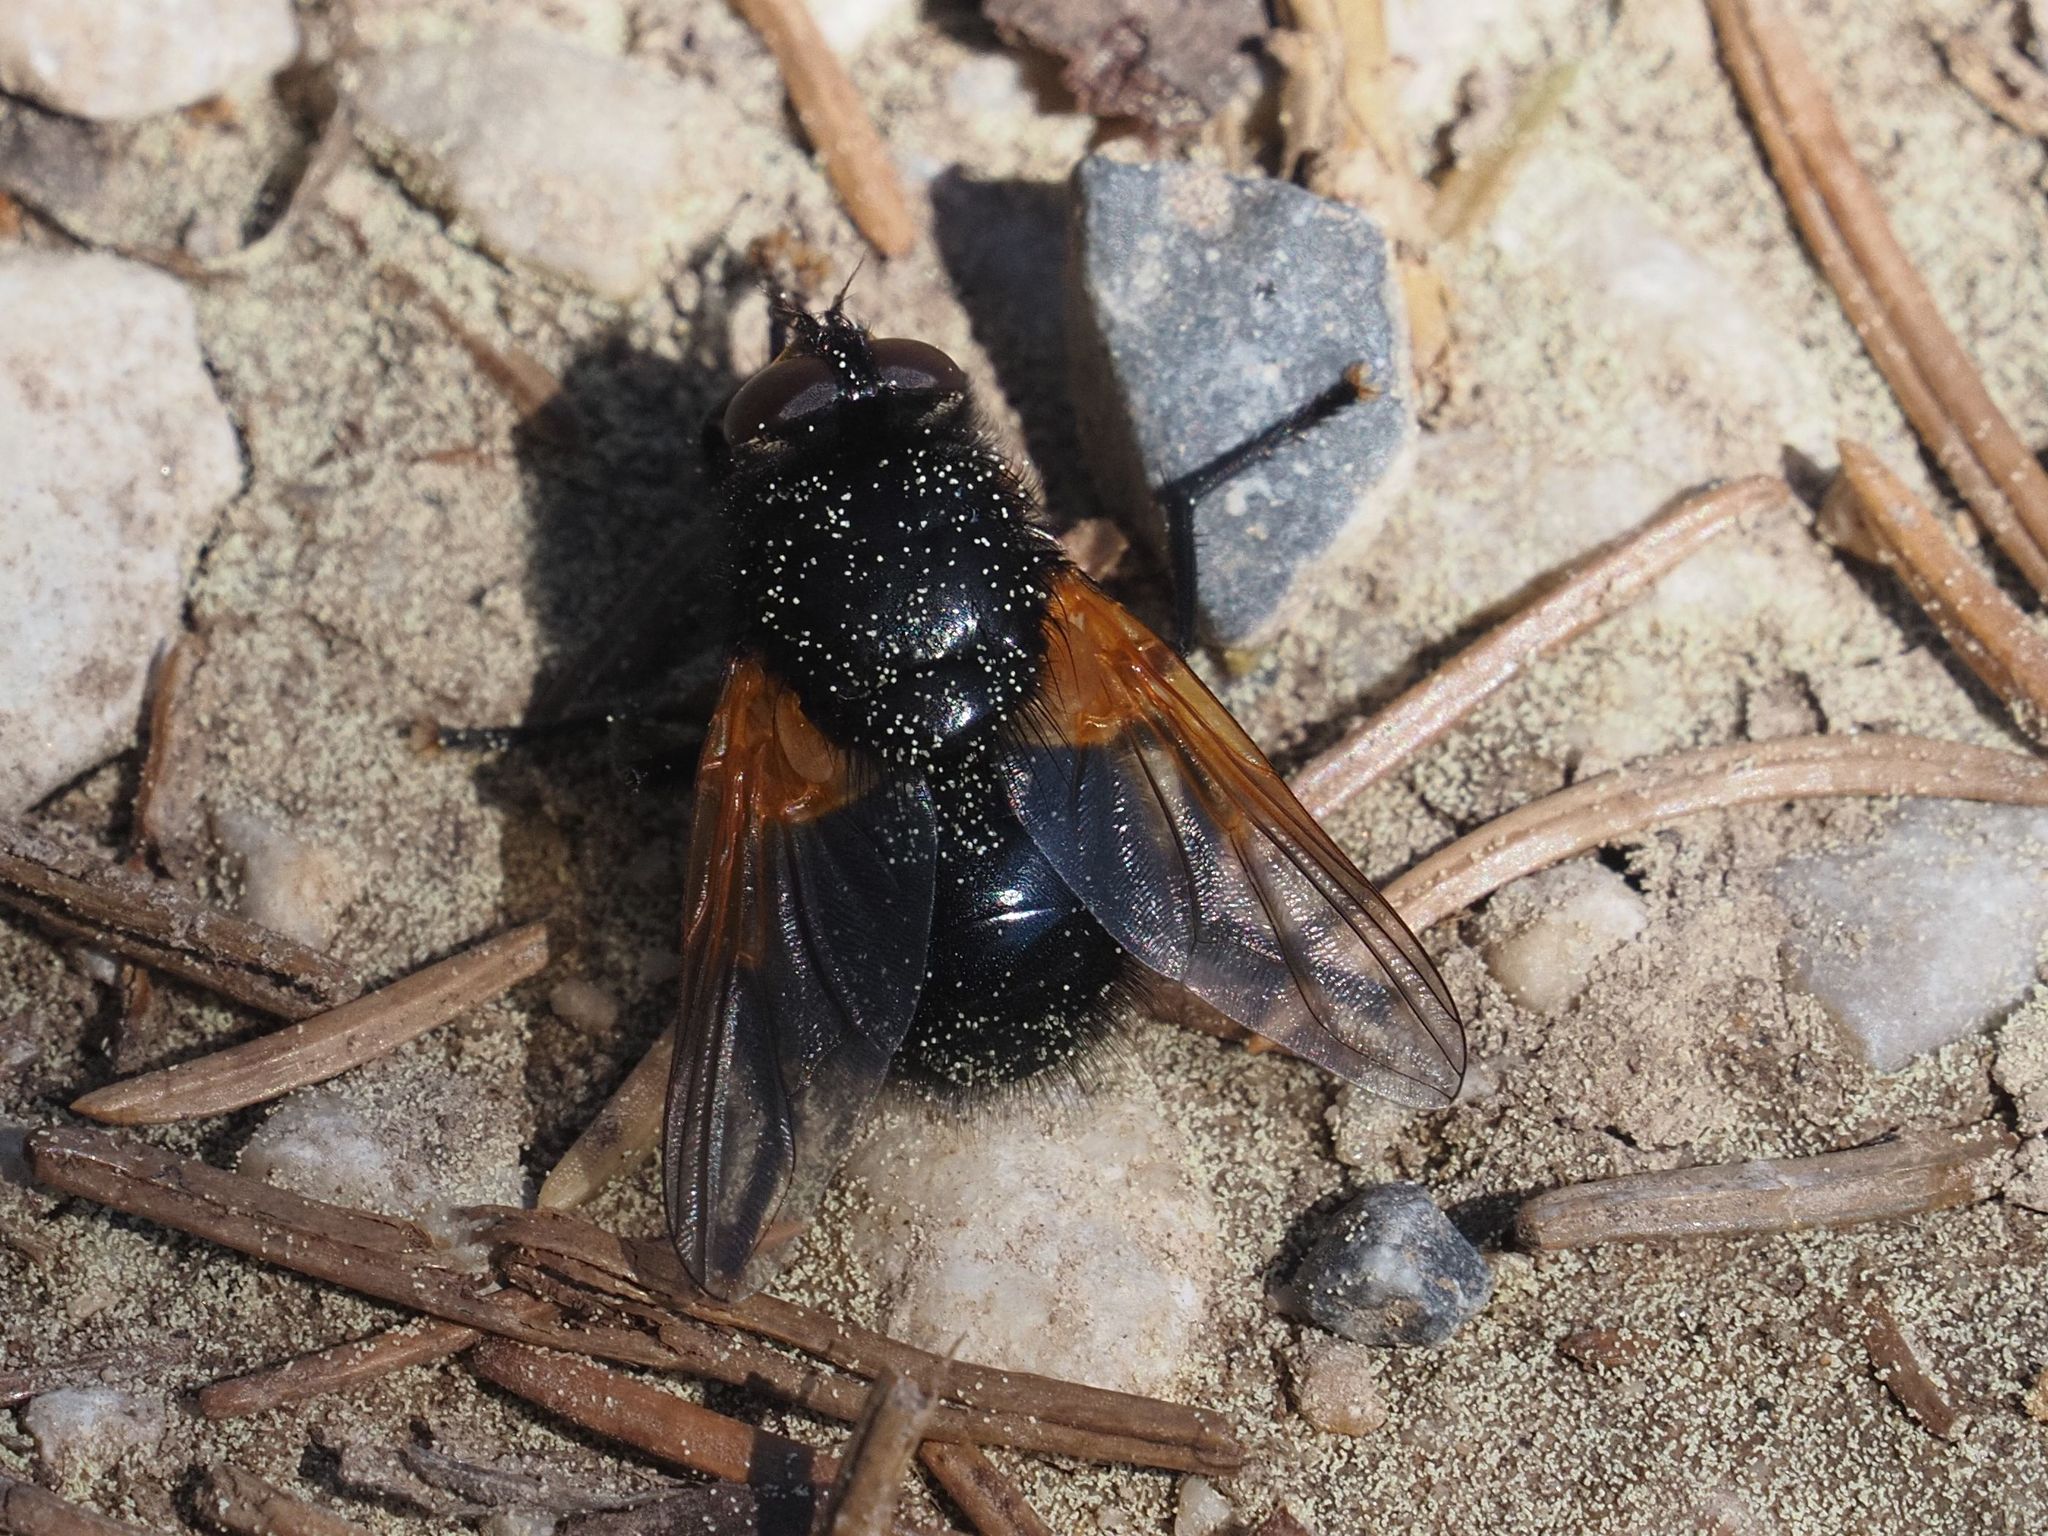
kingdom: Animalia
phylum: Arthropoda
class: Insecta
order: Diptera
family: Muscidae
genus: Mesembrina
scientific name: Mesembrina meridiana
